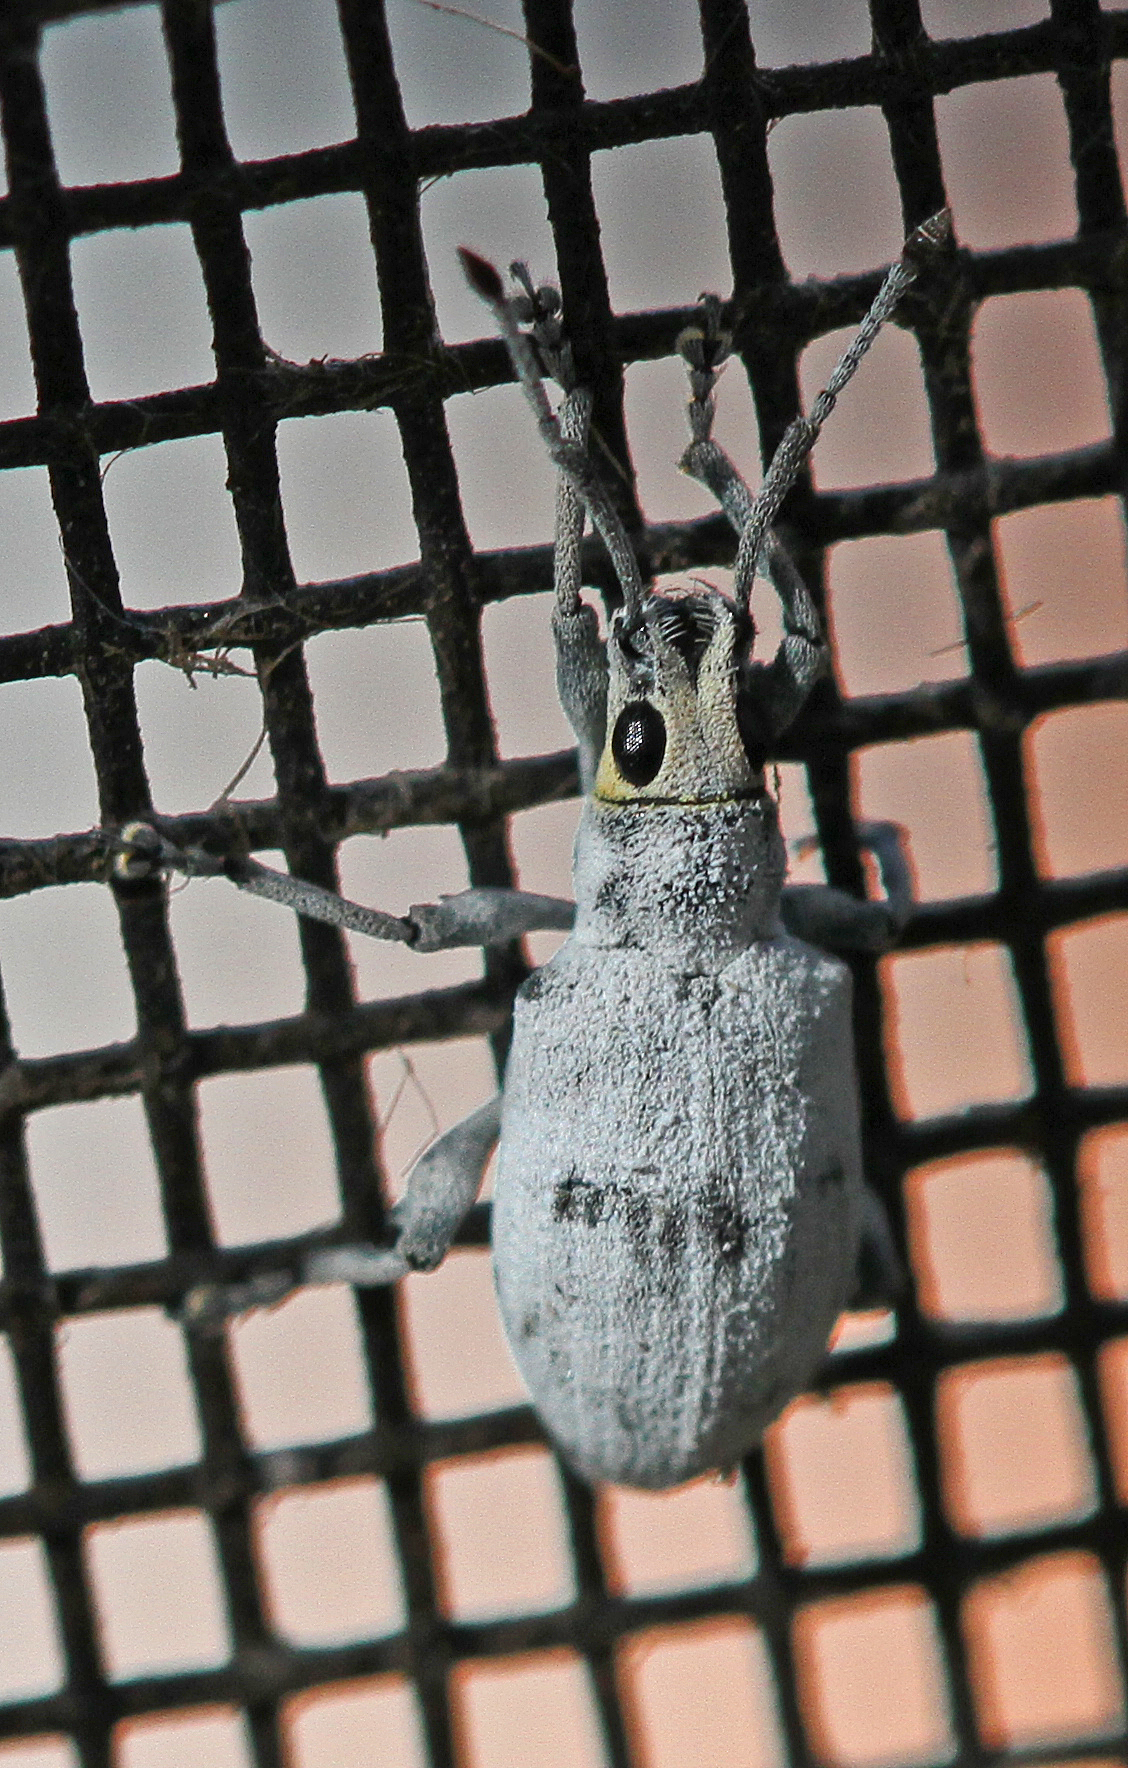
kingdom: Animalia
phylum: Arthropoda
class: Insecta
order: Coleoptera
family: Curculionidae
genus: Myllocerus
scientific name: Myllocerus undecimpustulatus
